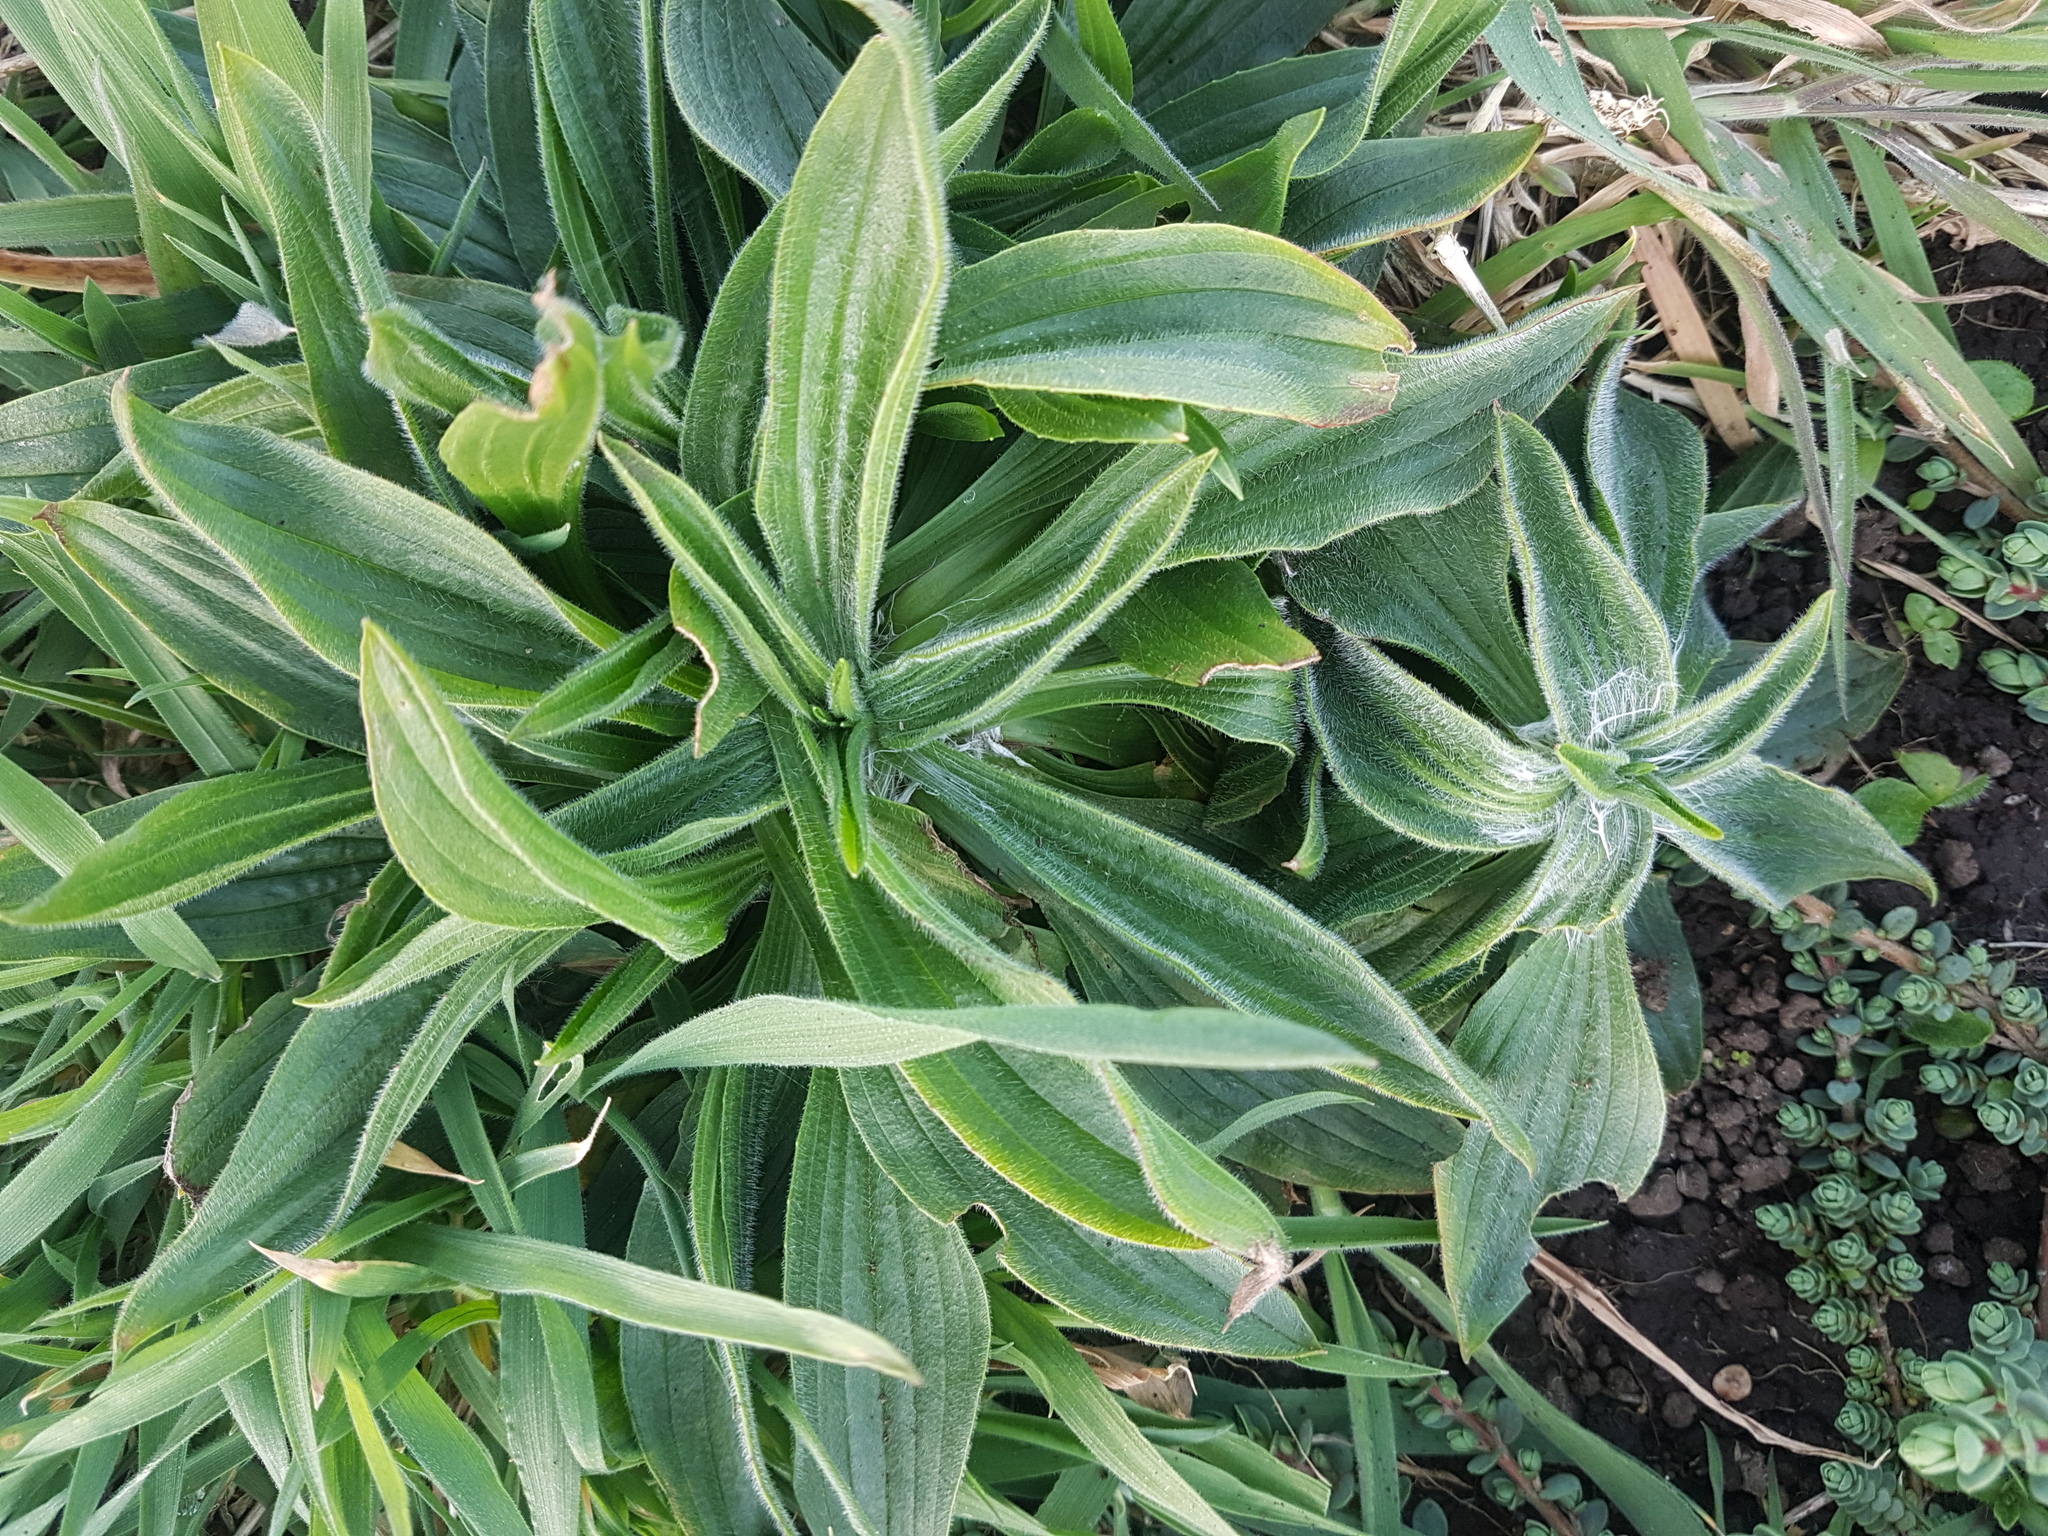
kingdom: Plantae
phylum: Tracheophyta
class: Magnoliopsida
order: Lamiales
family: Plantaginaceae
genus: Plantago
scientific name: Plantago lanceolata
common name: Ribwort plantain
